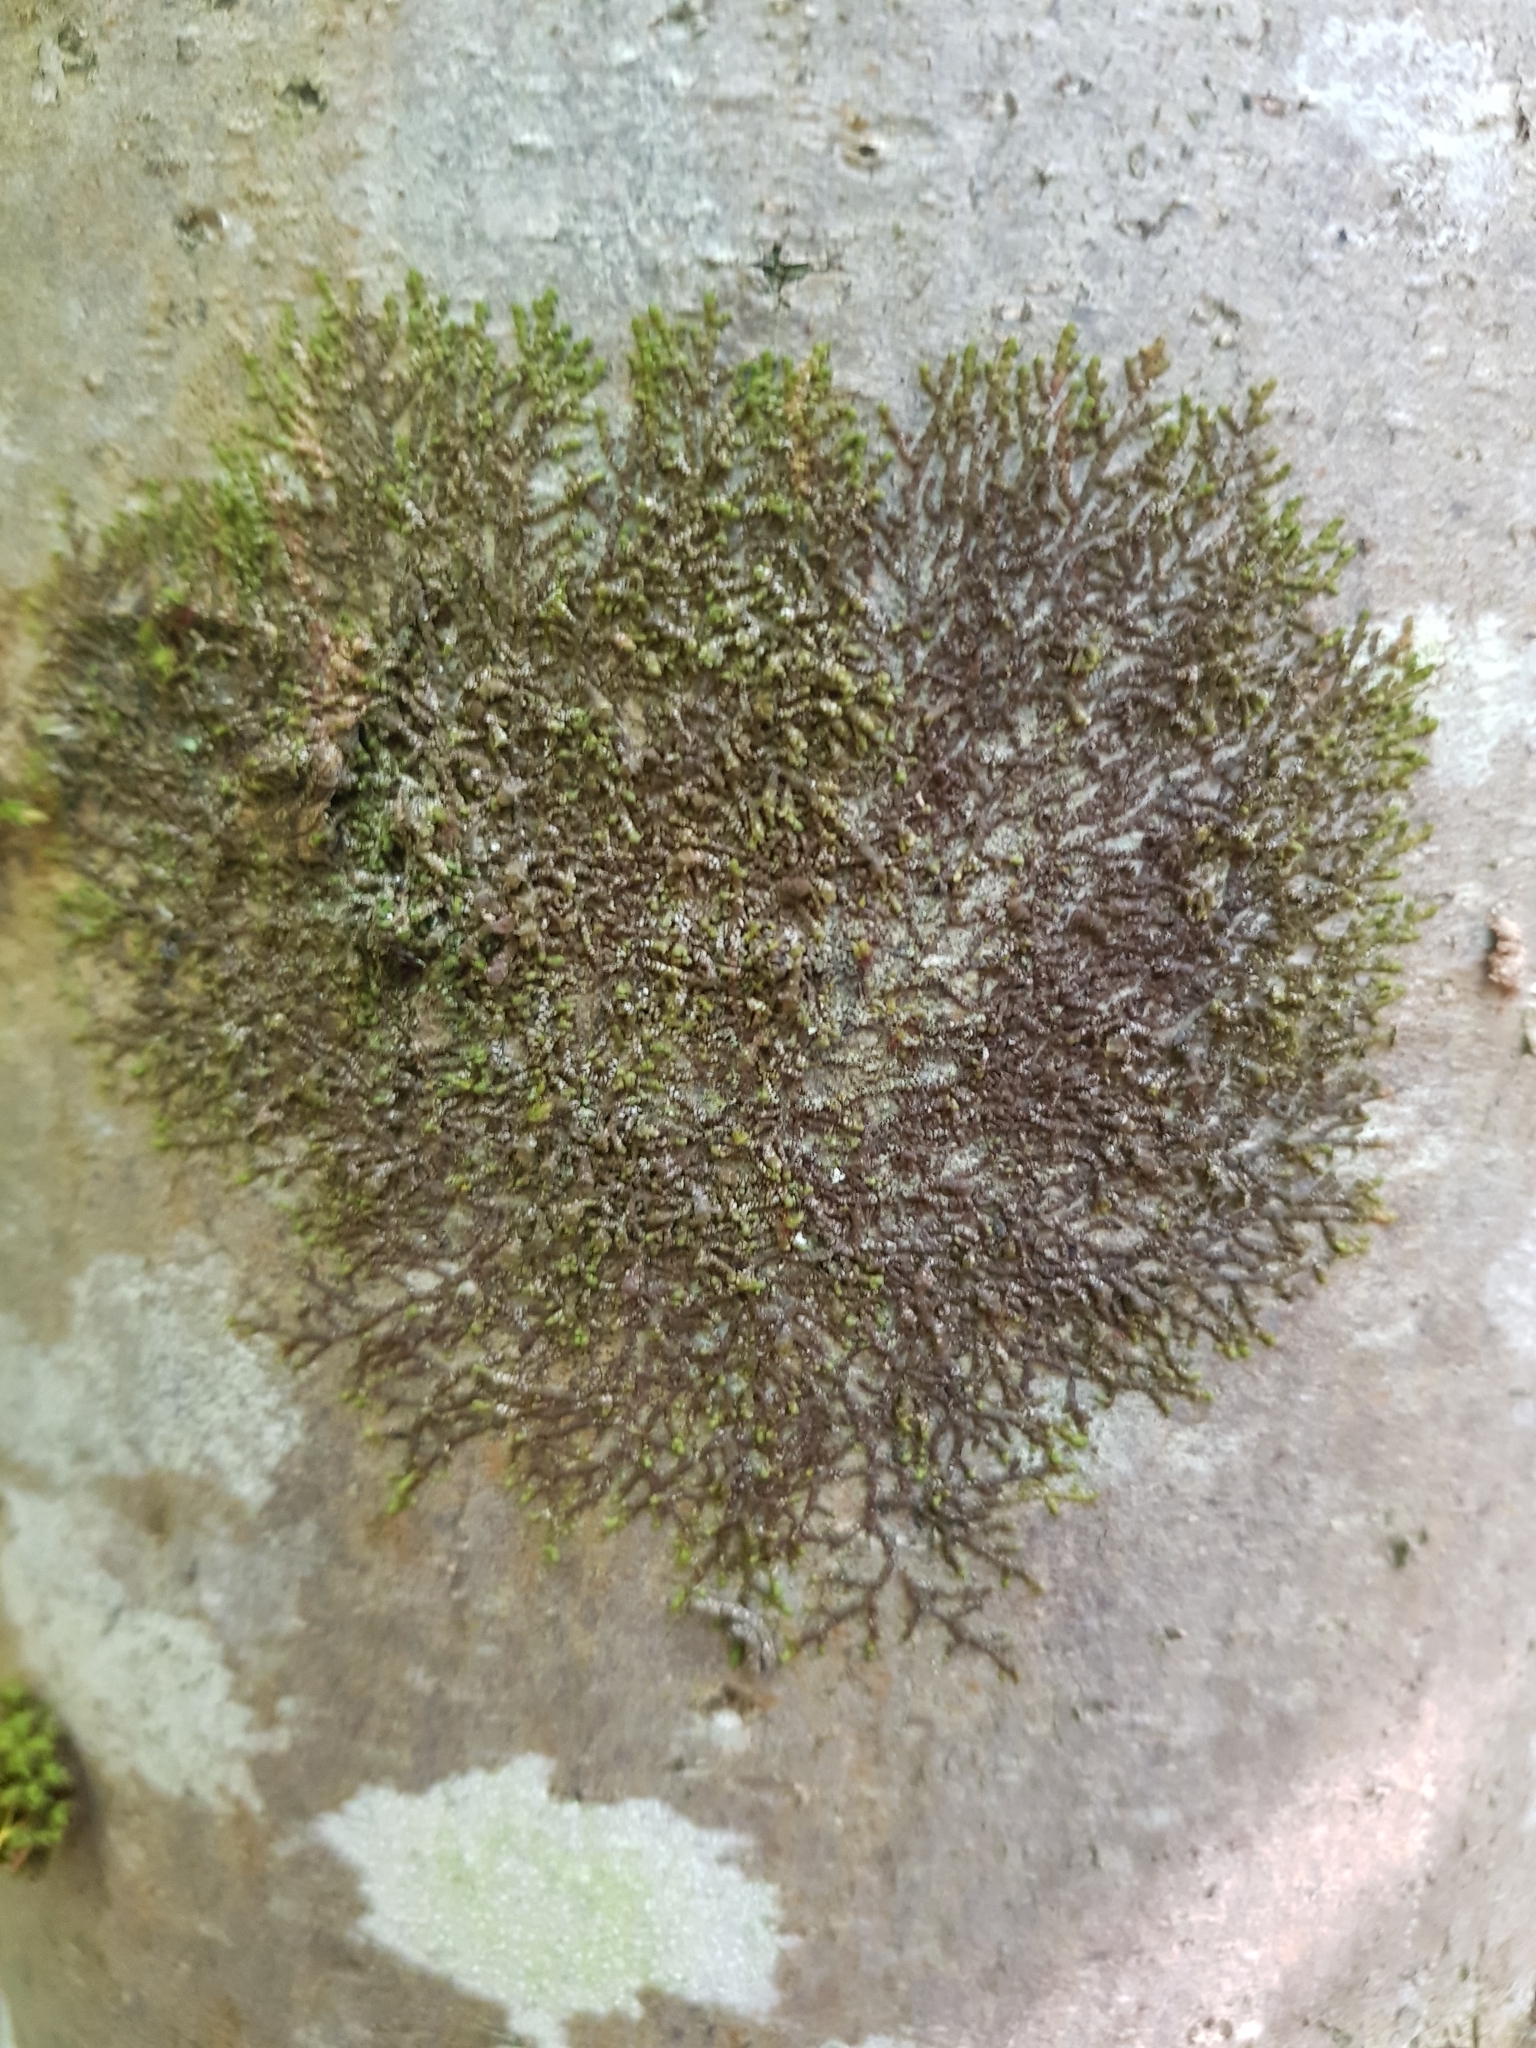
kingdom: Plantae
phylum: Marchantiophyta
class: Jungermanniopsida
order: Porellales
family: Frullaniaceae
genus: Frullania
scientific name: Frullania dilatata
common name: Dilated scalewort
